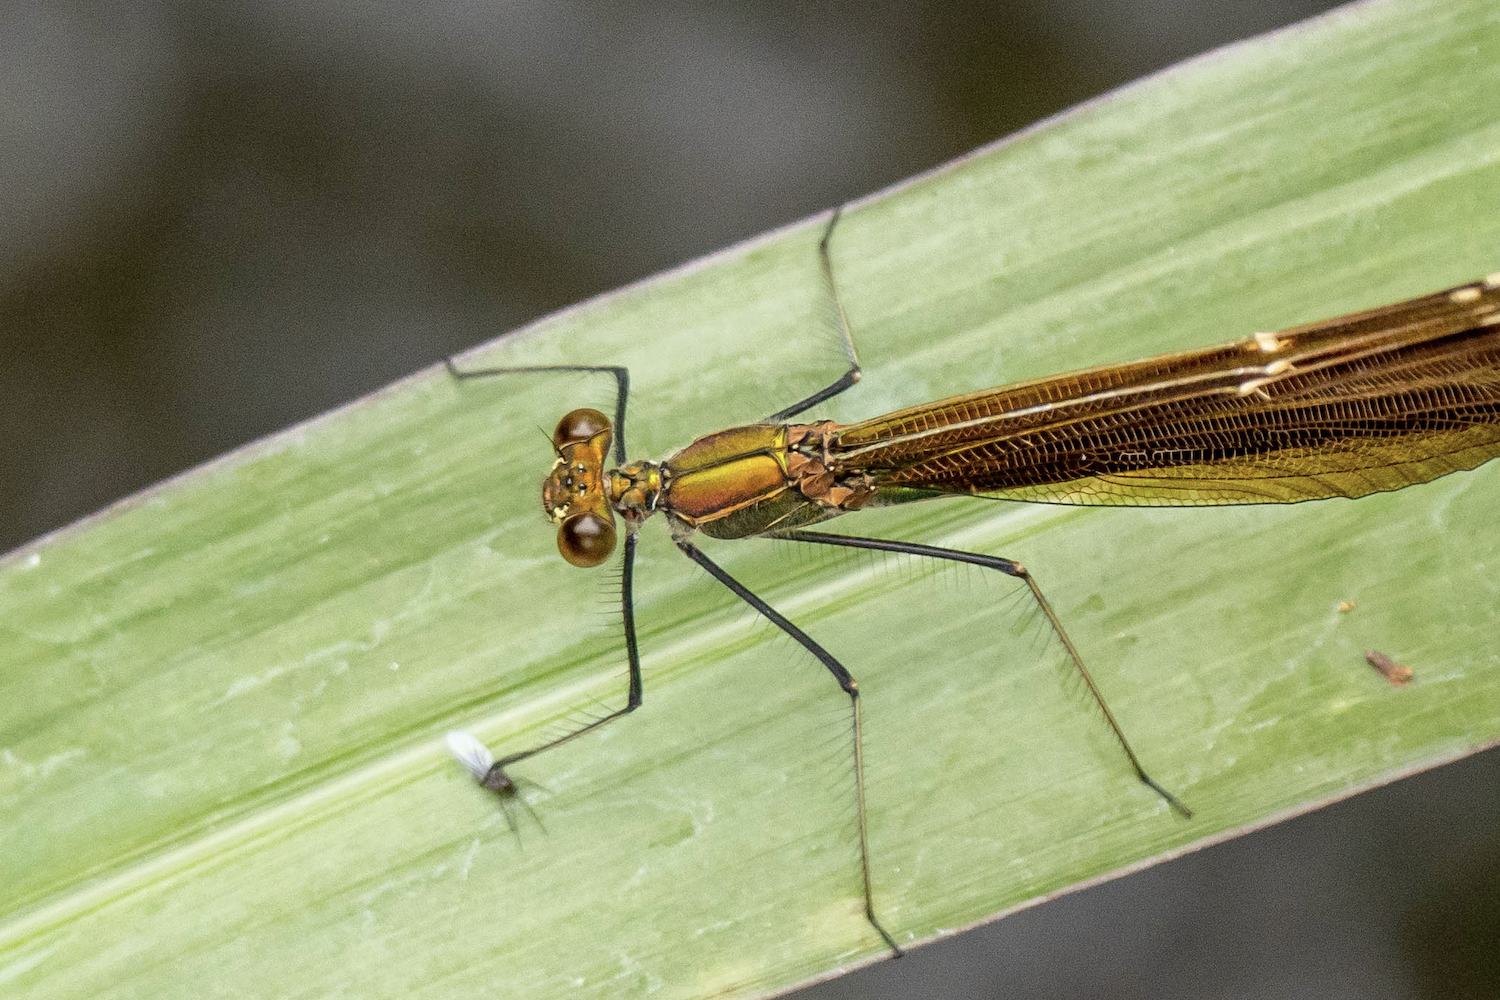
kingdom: Animalia
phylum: Arthropoda
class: Insecta
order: Odonata
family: Calopterygidae
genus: Neurobasis
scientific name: Neurobasis chinensis
